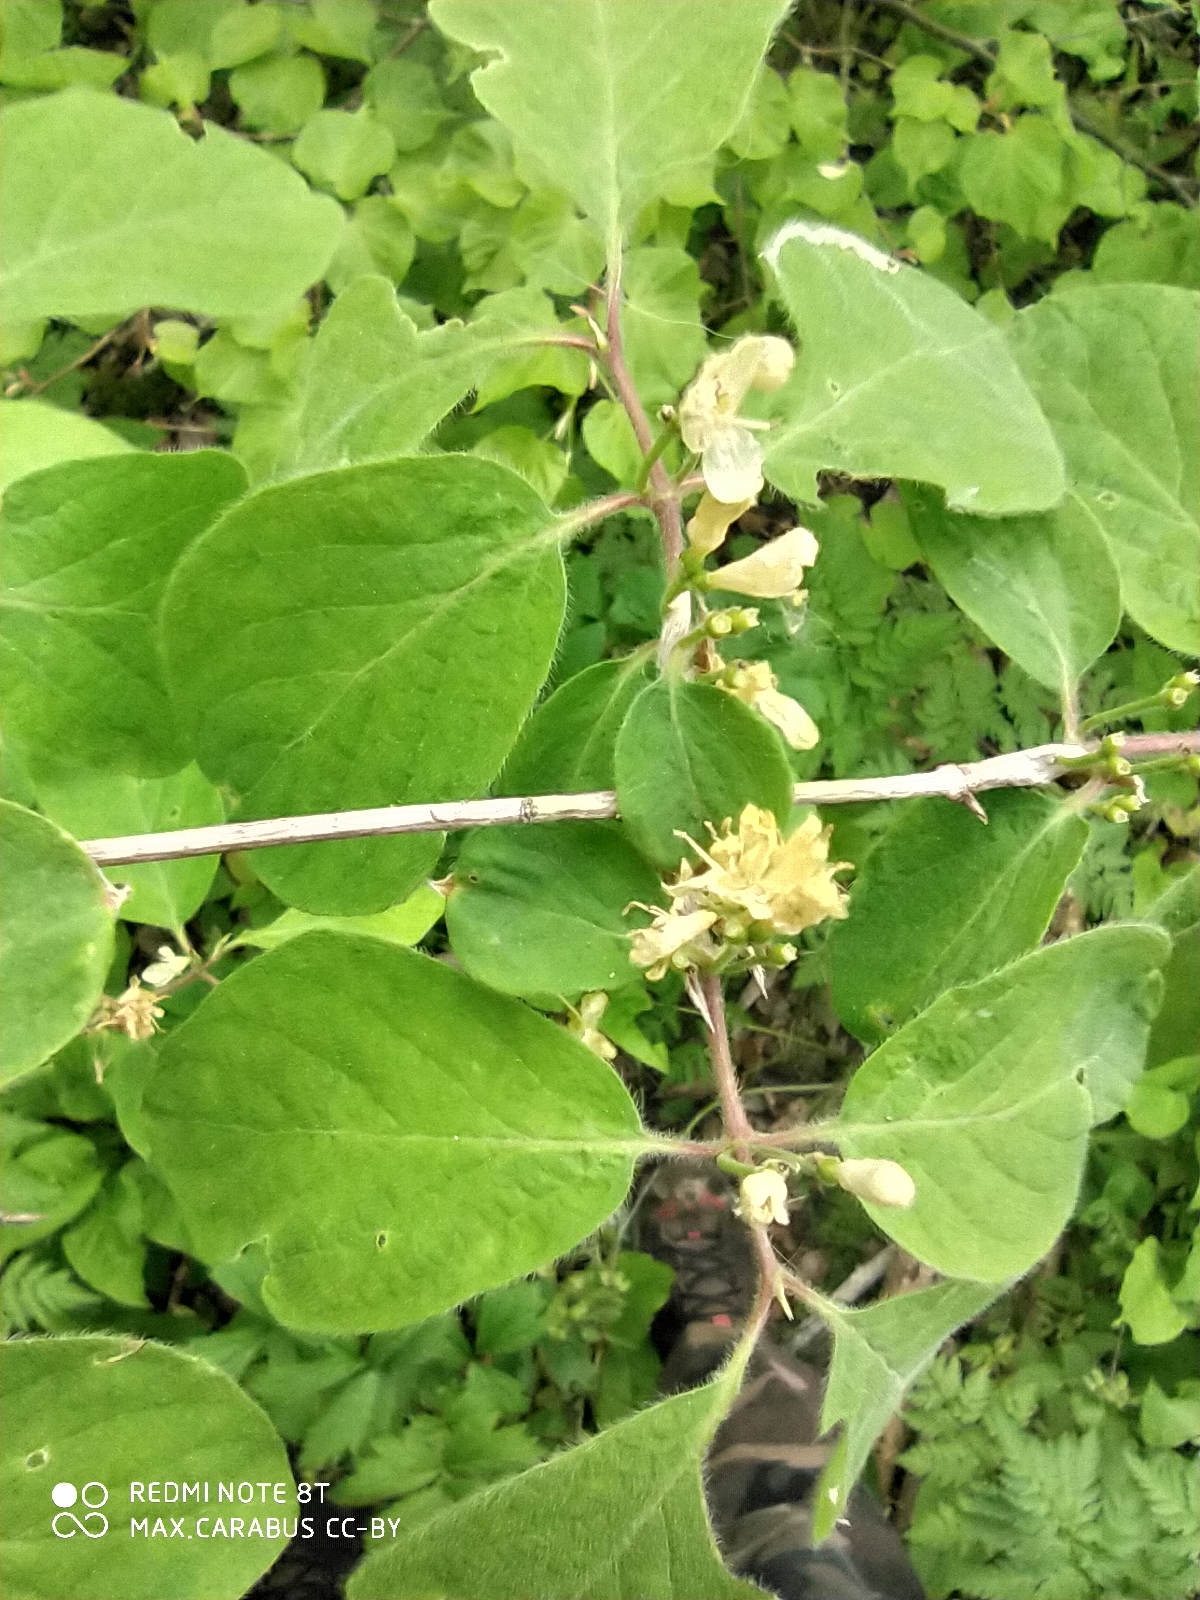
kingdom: Plantae
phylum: Tracheophyta
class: Magnoliopsida
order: Dipsacales
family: Caprifoliaceae
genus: Lonicera
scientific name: Lonicera xylosteum
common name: Fly honeysuckle
